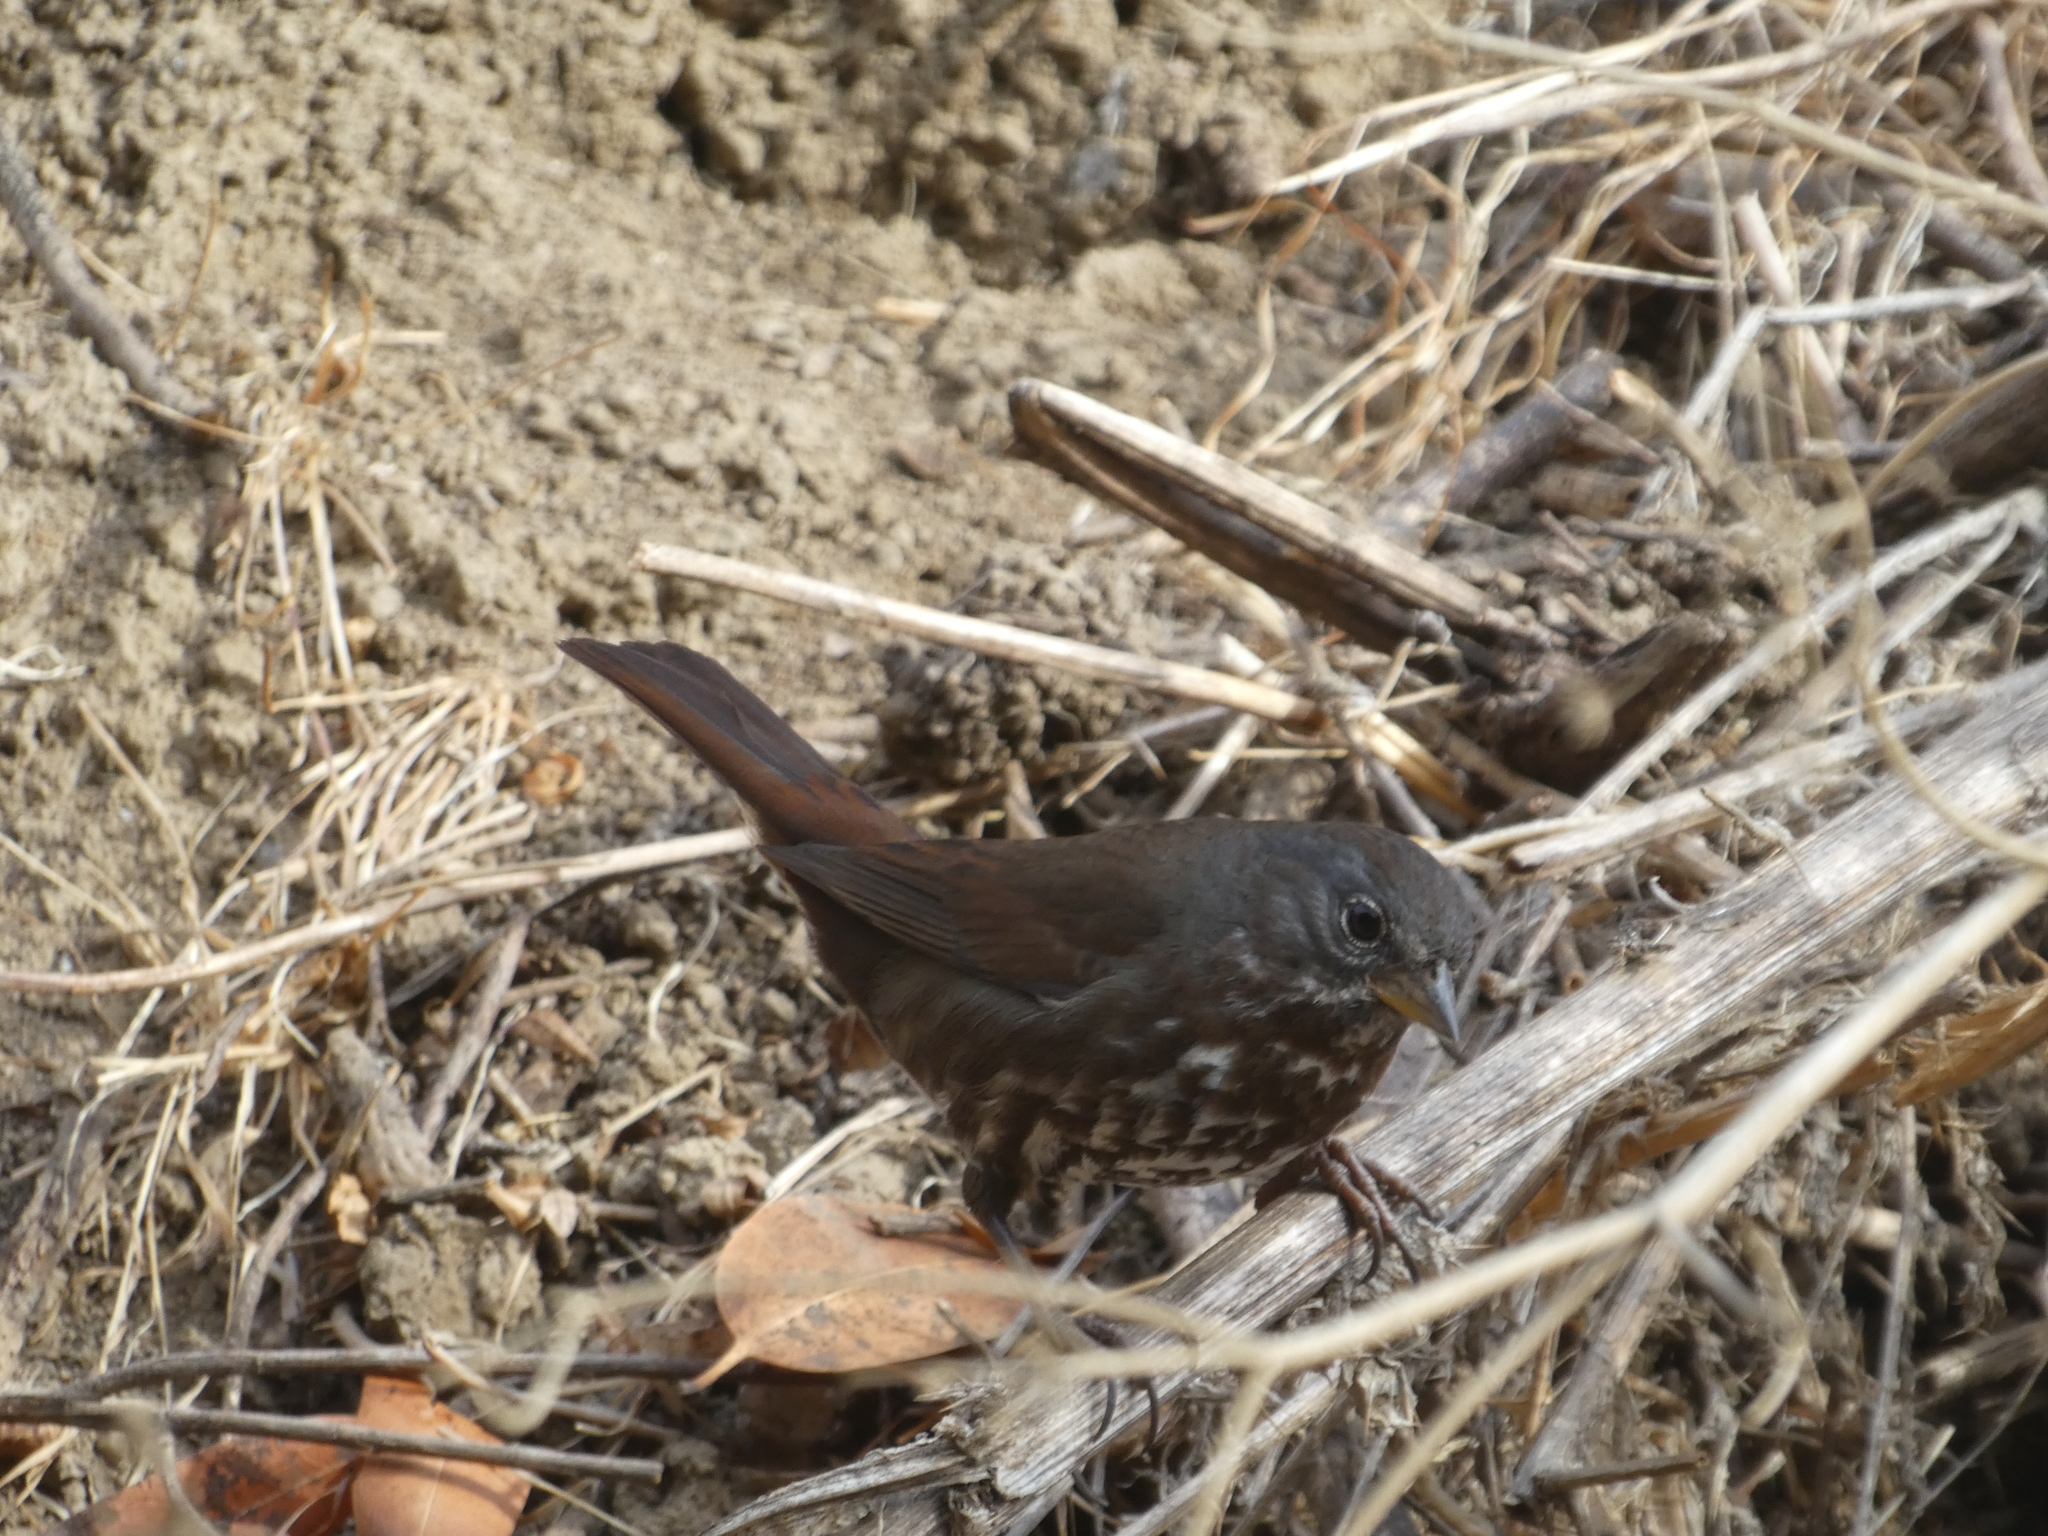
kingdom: Animalia
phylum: Chordata
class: Aves
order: Passeriformes
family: Passerellidae
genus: Passerella
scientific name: Passerella iliaca
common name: Fox sparrow
